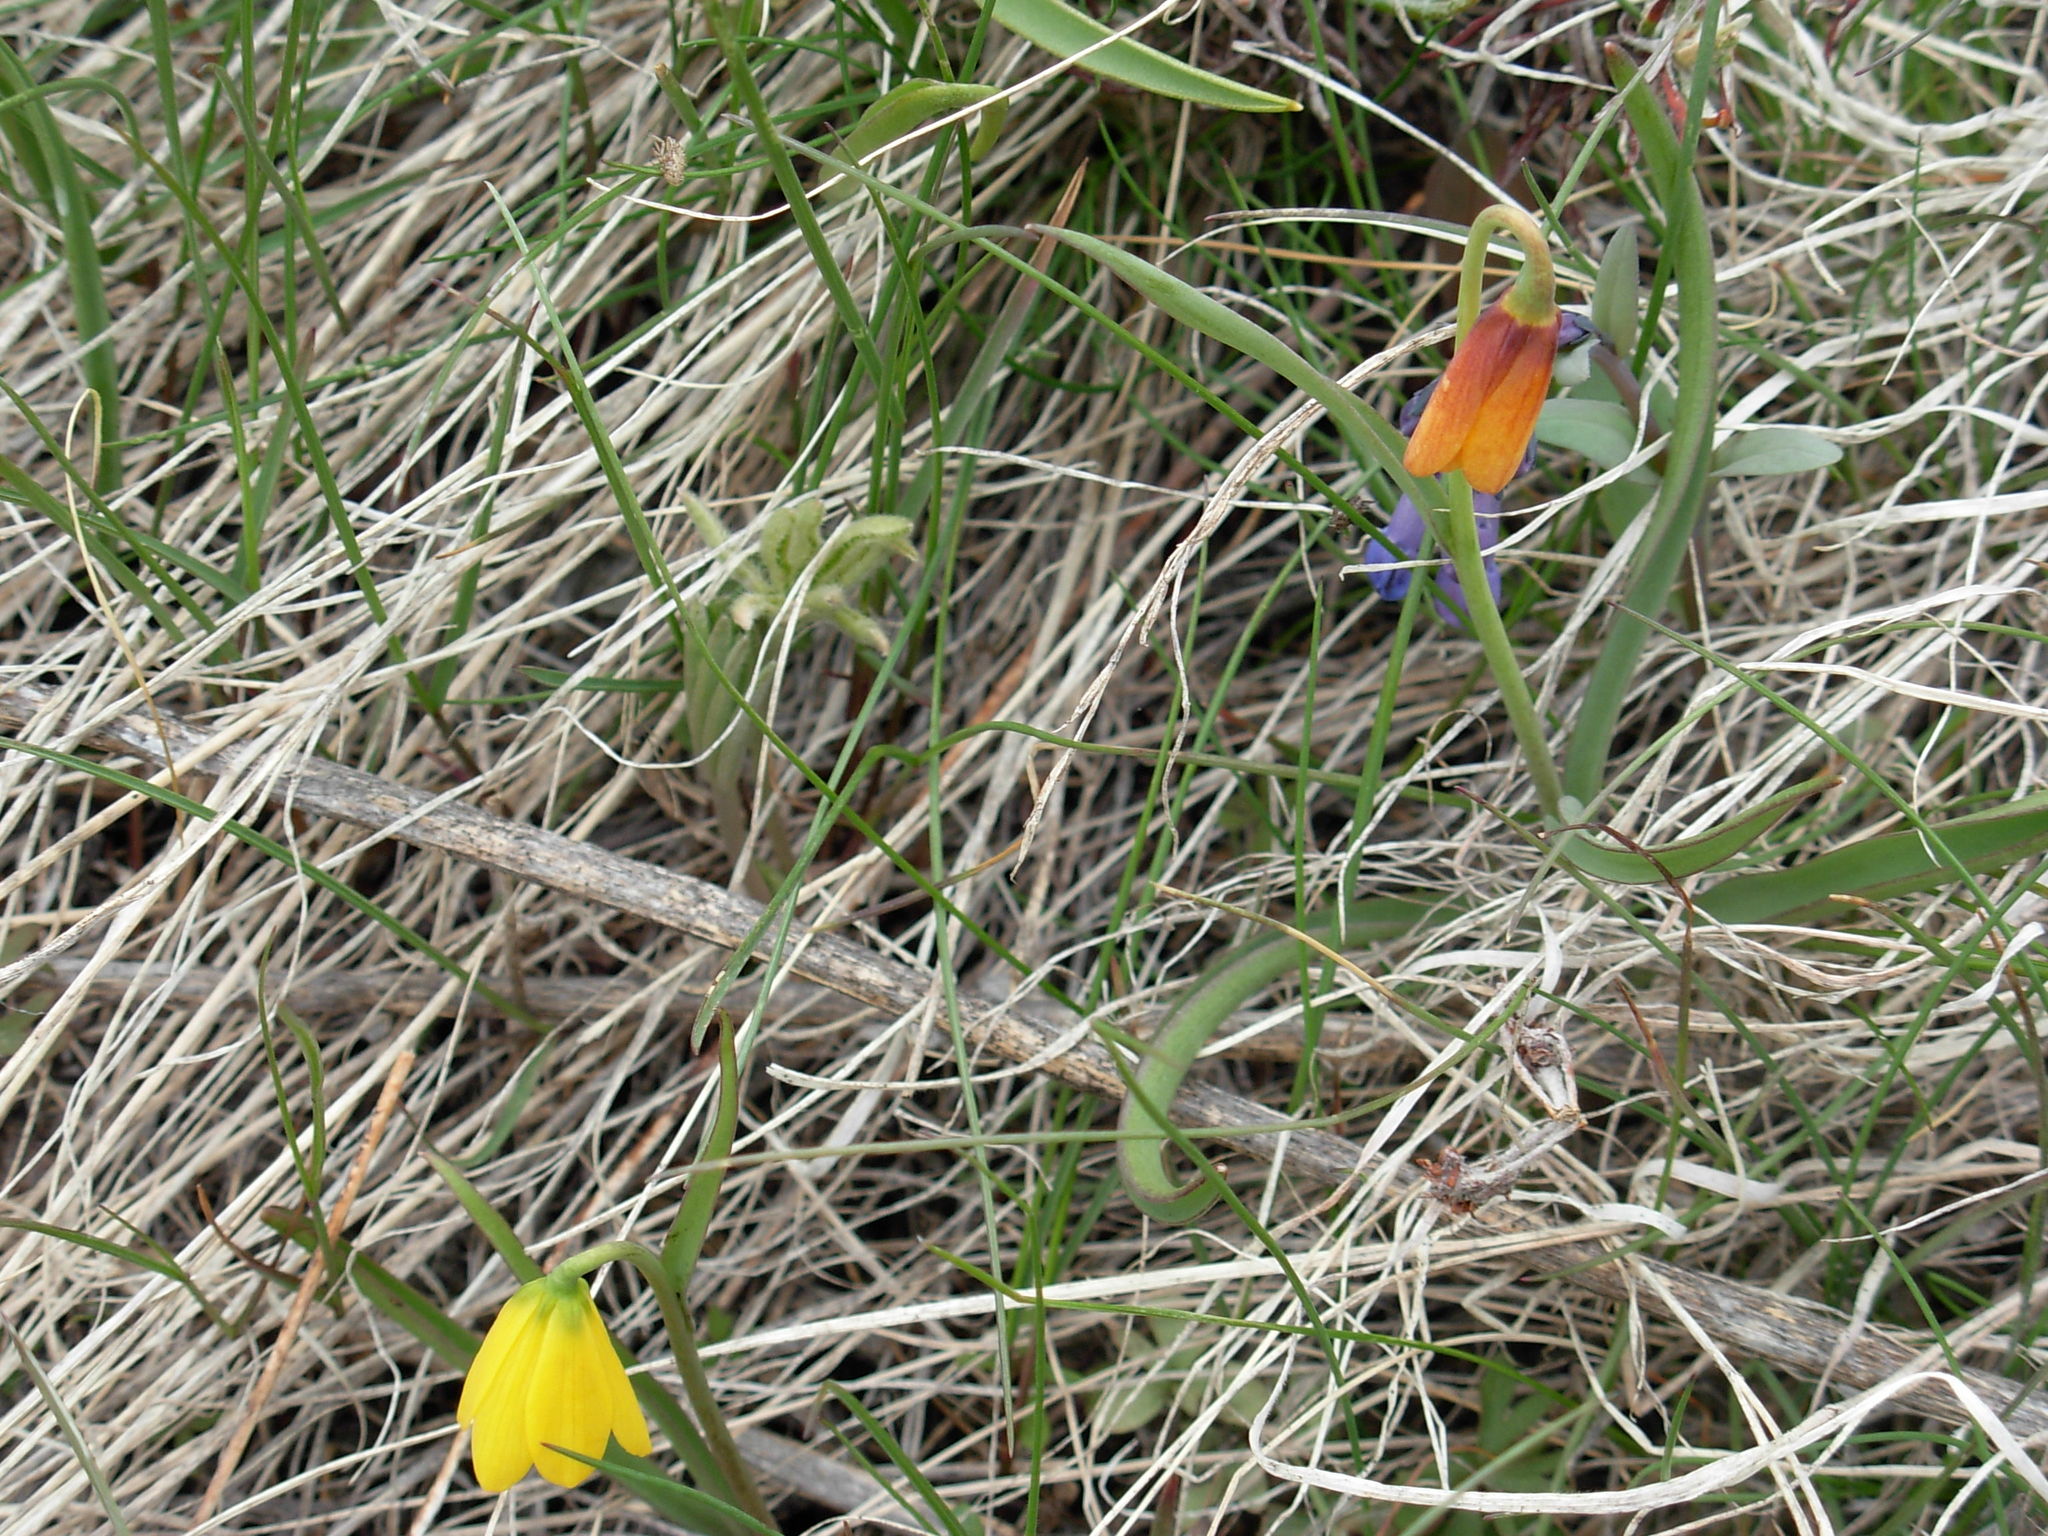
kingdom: Plantae
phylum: Tracheophyta
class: Liliopsida
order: Liliales
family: Liliaceae
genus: Fritillaria
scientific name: Fritillaria pudica
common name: Yellow fritillary
